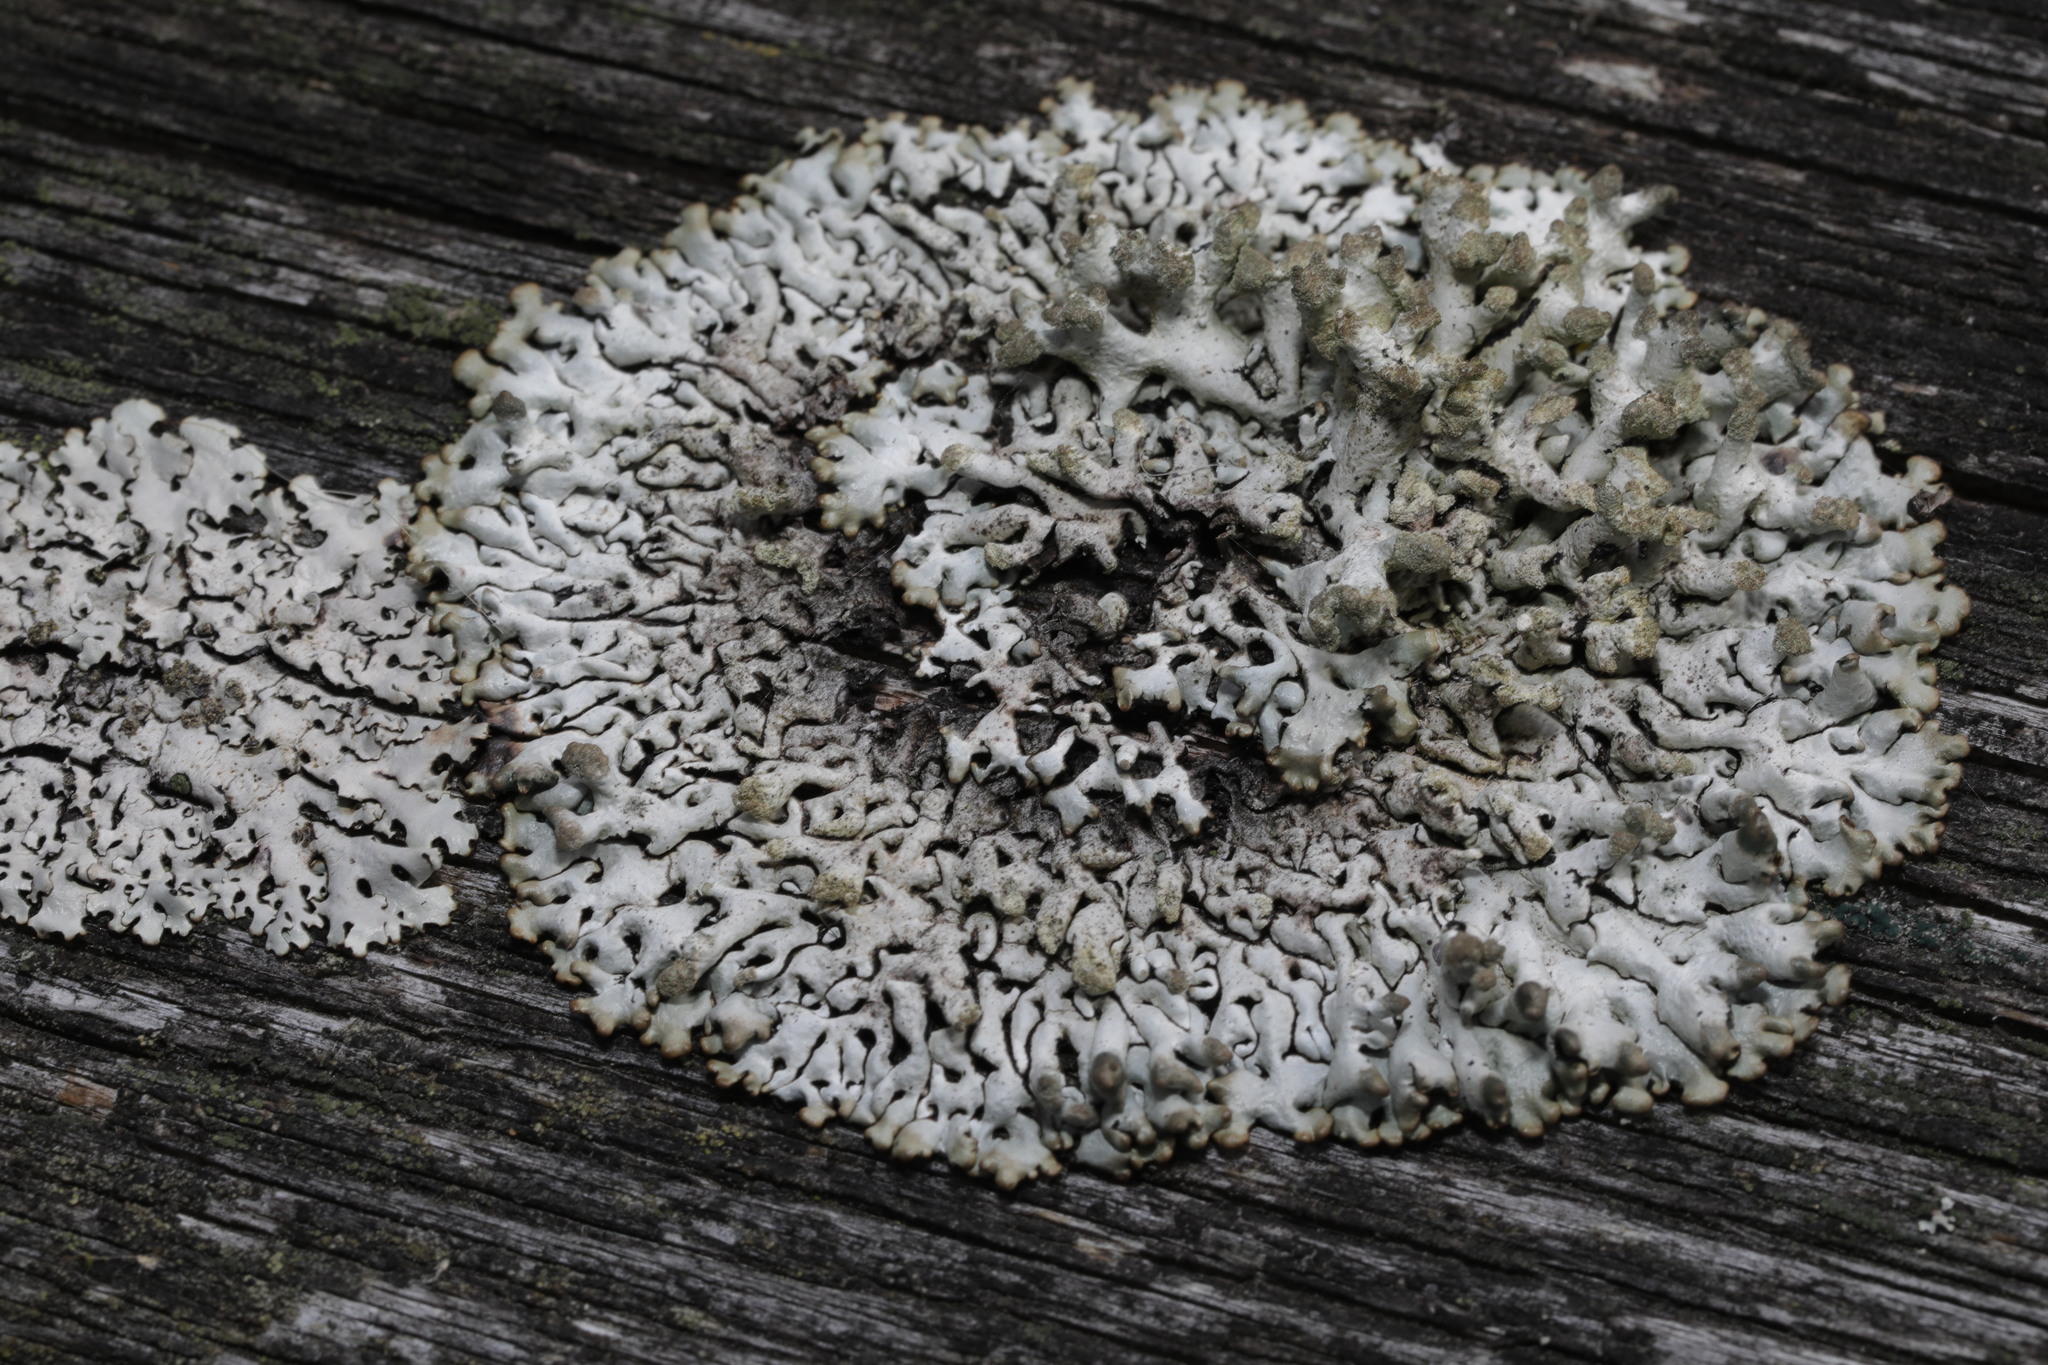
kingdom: Fungi
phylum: Ascomycota
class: Lecanoromycetes
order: Lecanorales
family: Parmeliaceae
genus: Hypogymnia
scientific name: Hypogymnia tubulosa
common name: Powder-headed tube lichen
